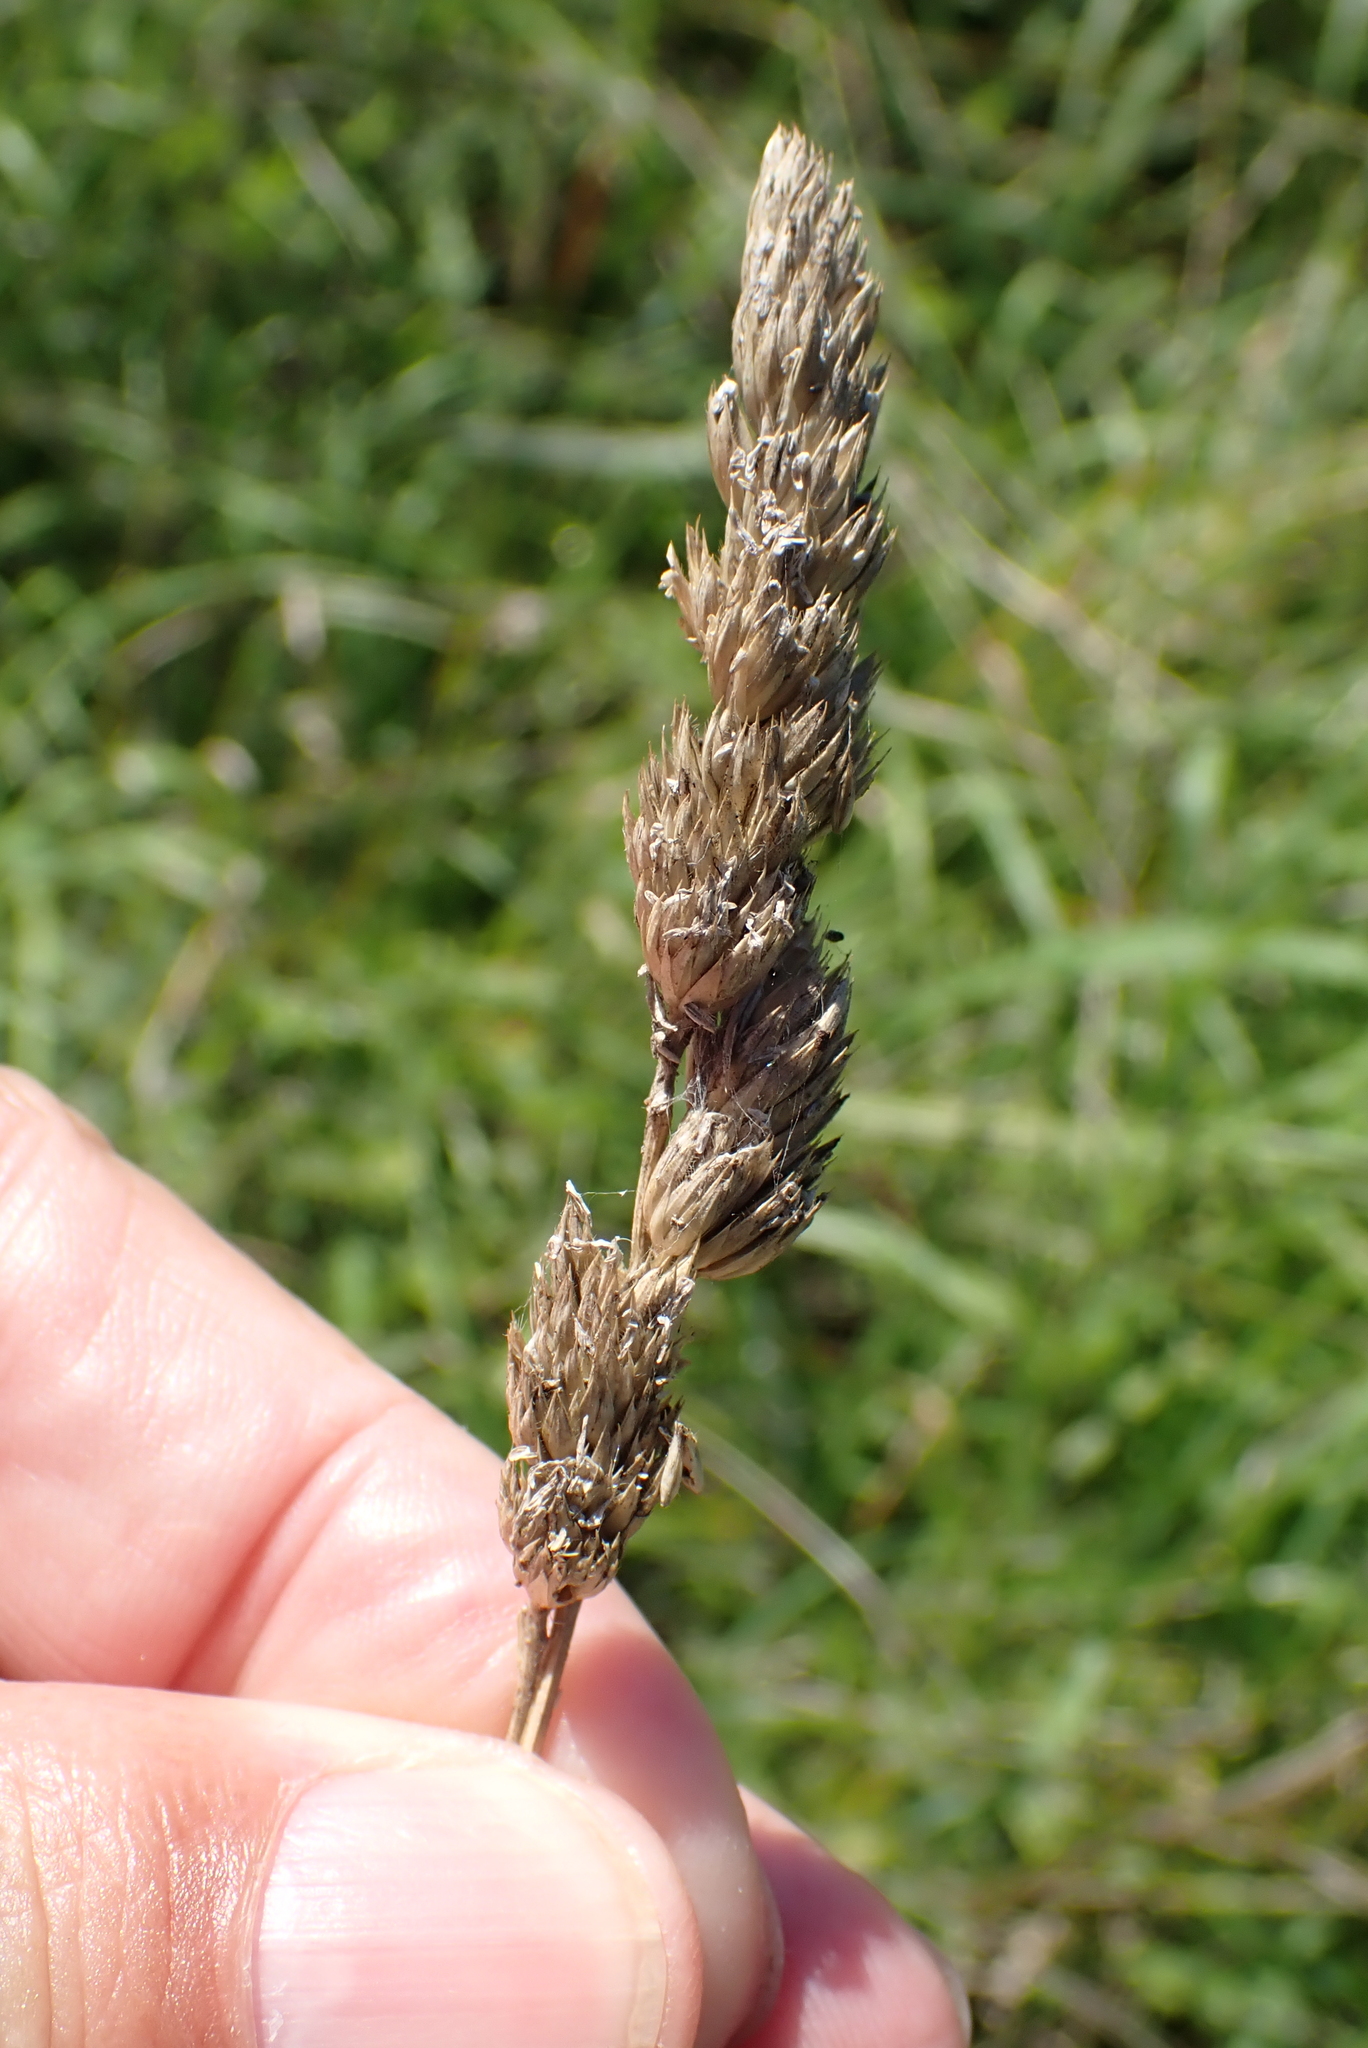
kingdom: Plantae
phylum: Tracheophyta
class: Liliopsida
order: Poales
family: Poaceae
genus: Dactylis
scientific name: Dactylis glomerata
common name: Orchardgrass
